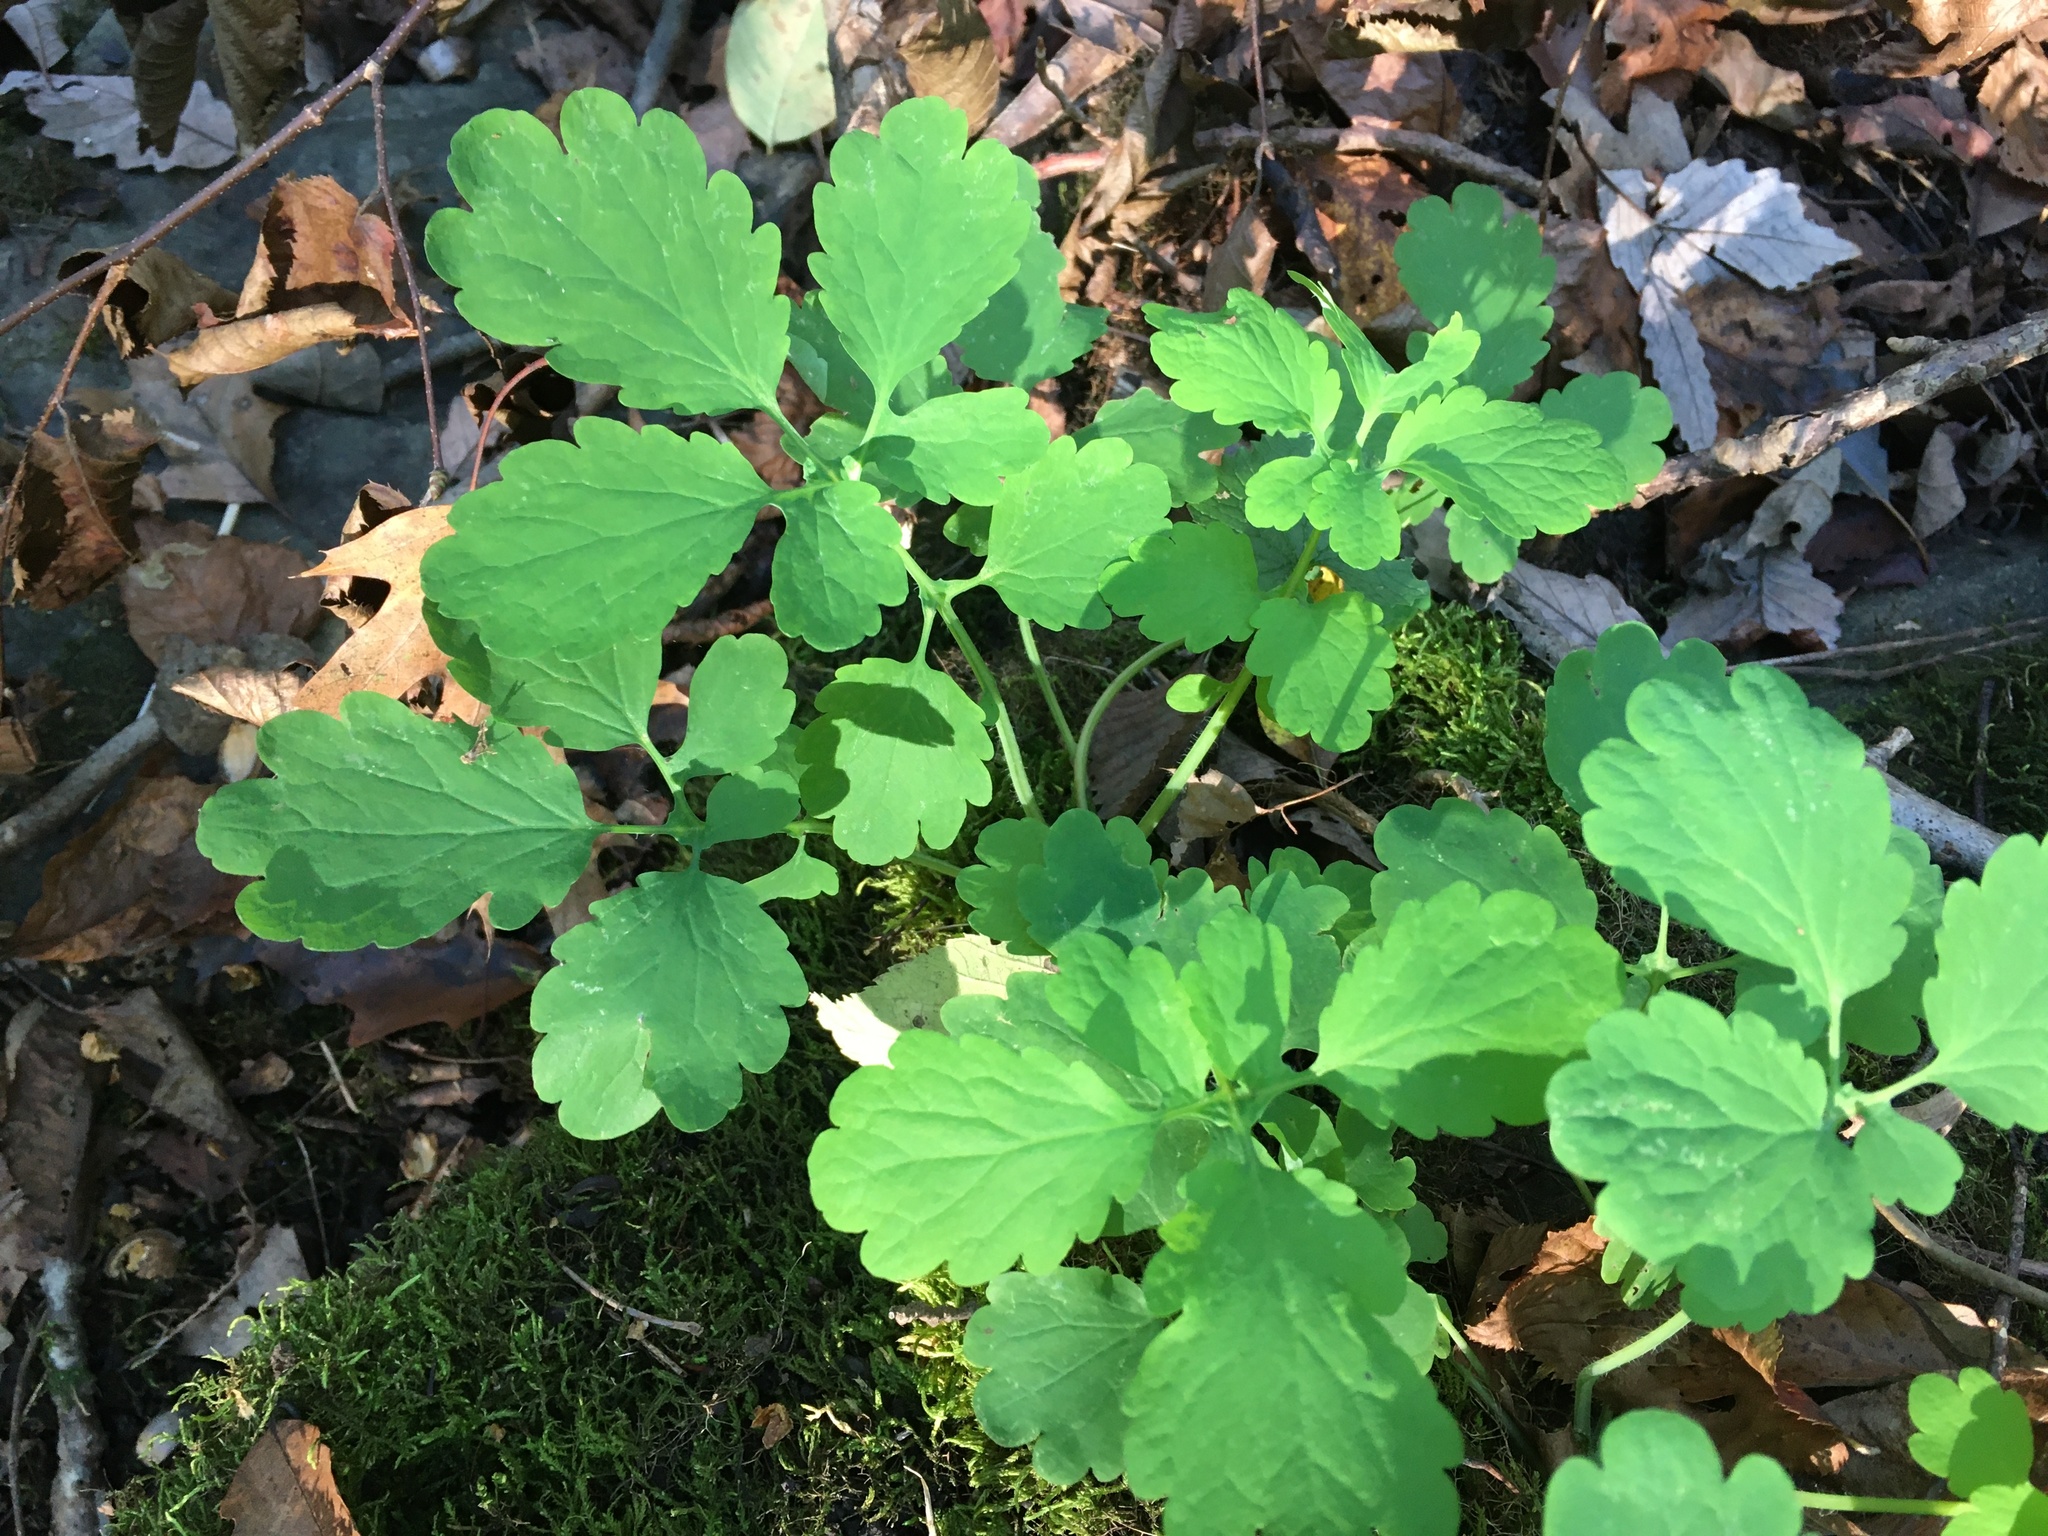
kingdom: Plantae
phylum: Tracheophyta
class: Magnoliopsida
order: Ranunculales
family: Papaveraceae
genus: Chelidonium
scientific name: Chelidonium majus
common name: Greater celandine
